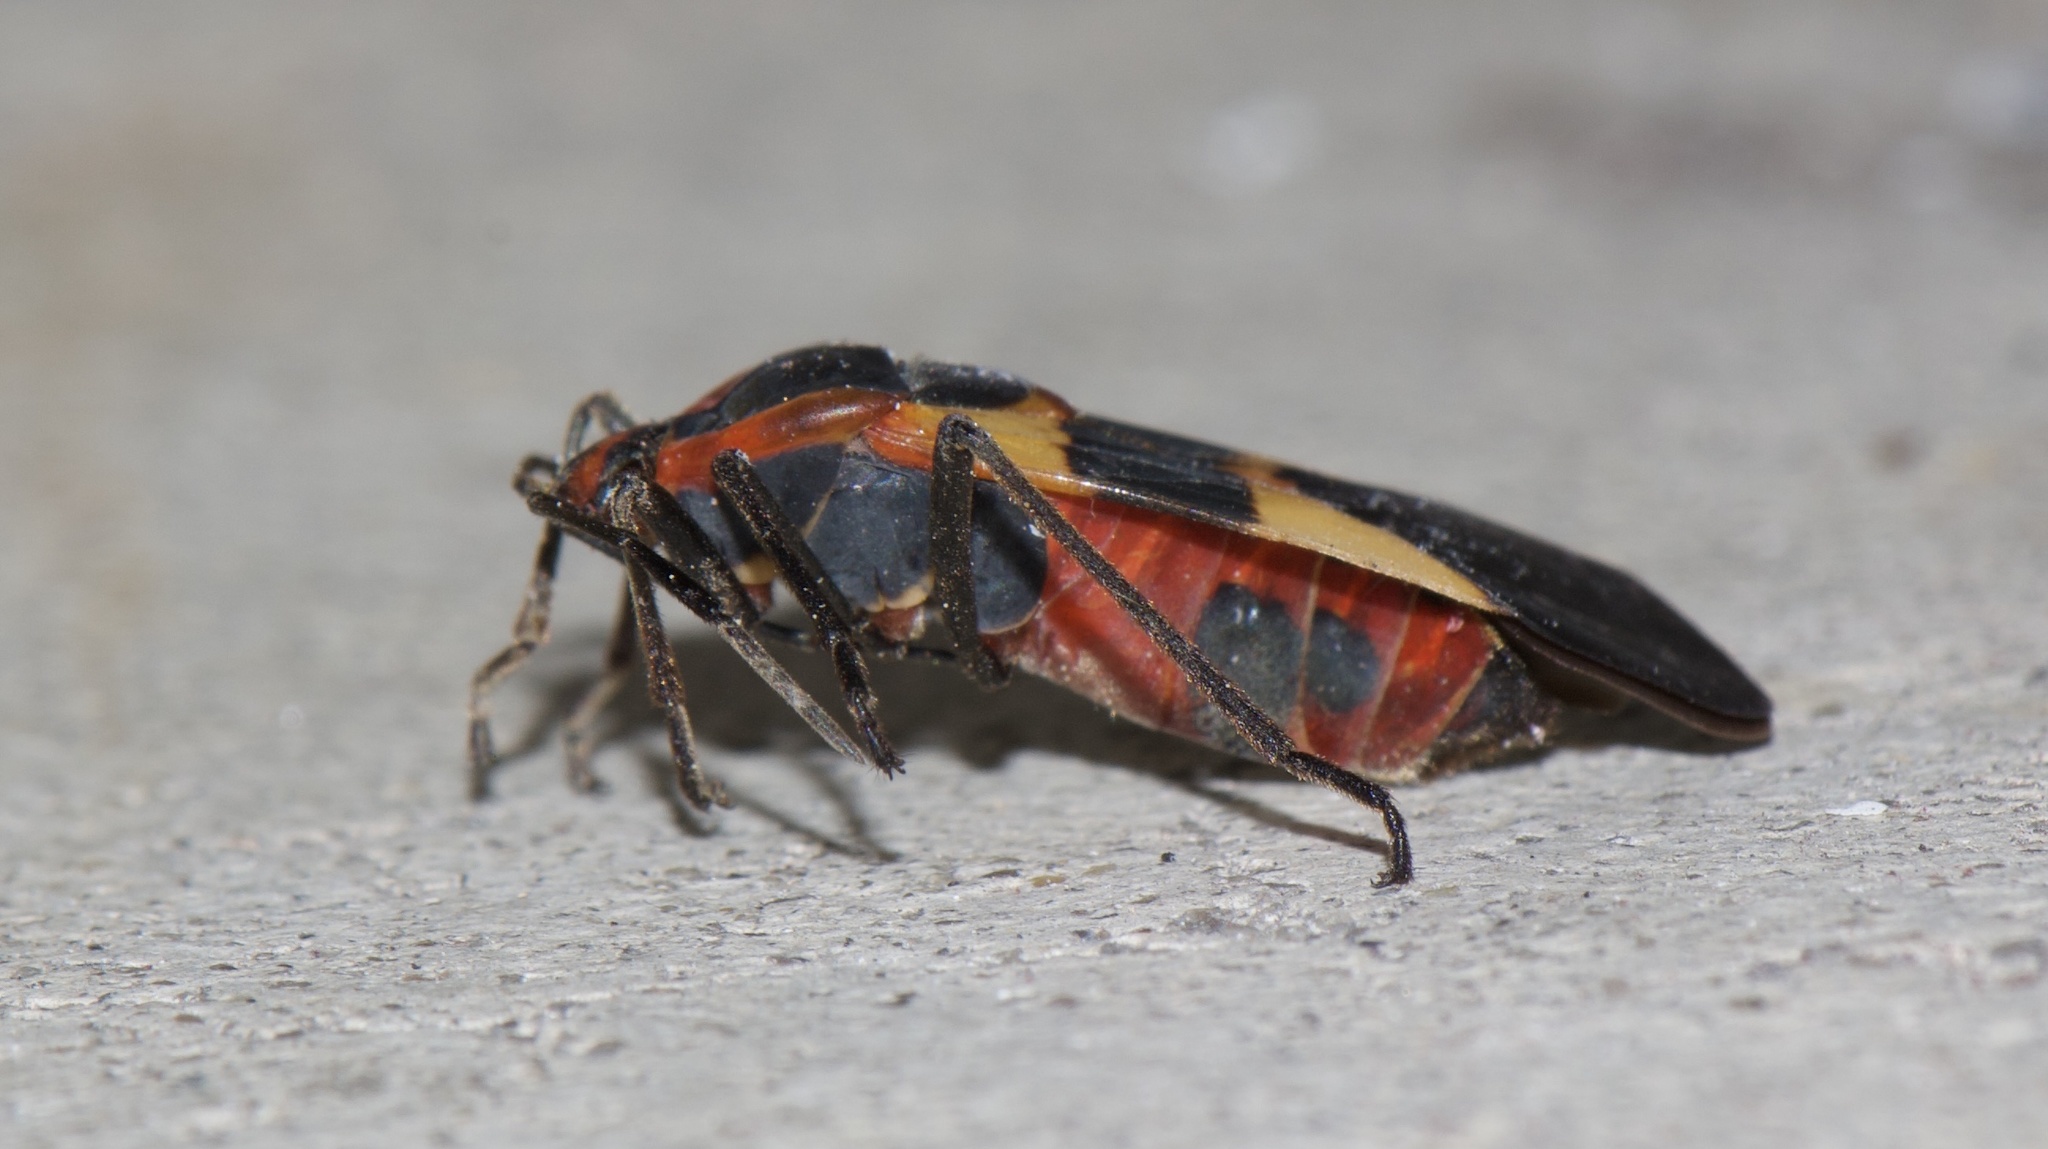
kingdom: Animalia
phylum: Arthropoda
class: Insecta
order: Hemiptera
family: Lygaeidae
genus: Oncopeltus
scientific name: Oncopeltus fasciatus
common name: Large milkweed bug
